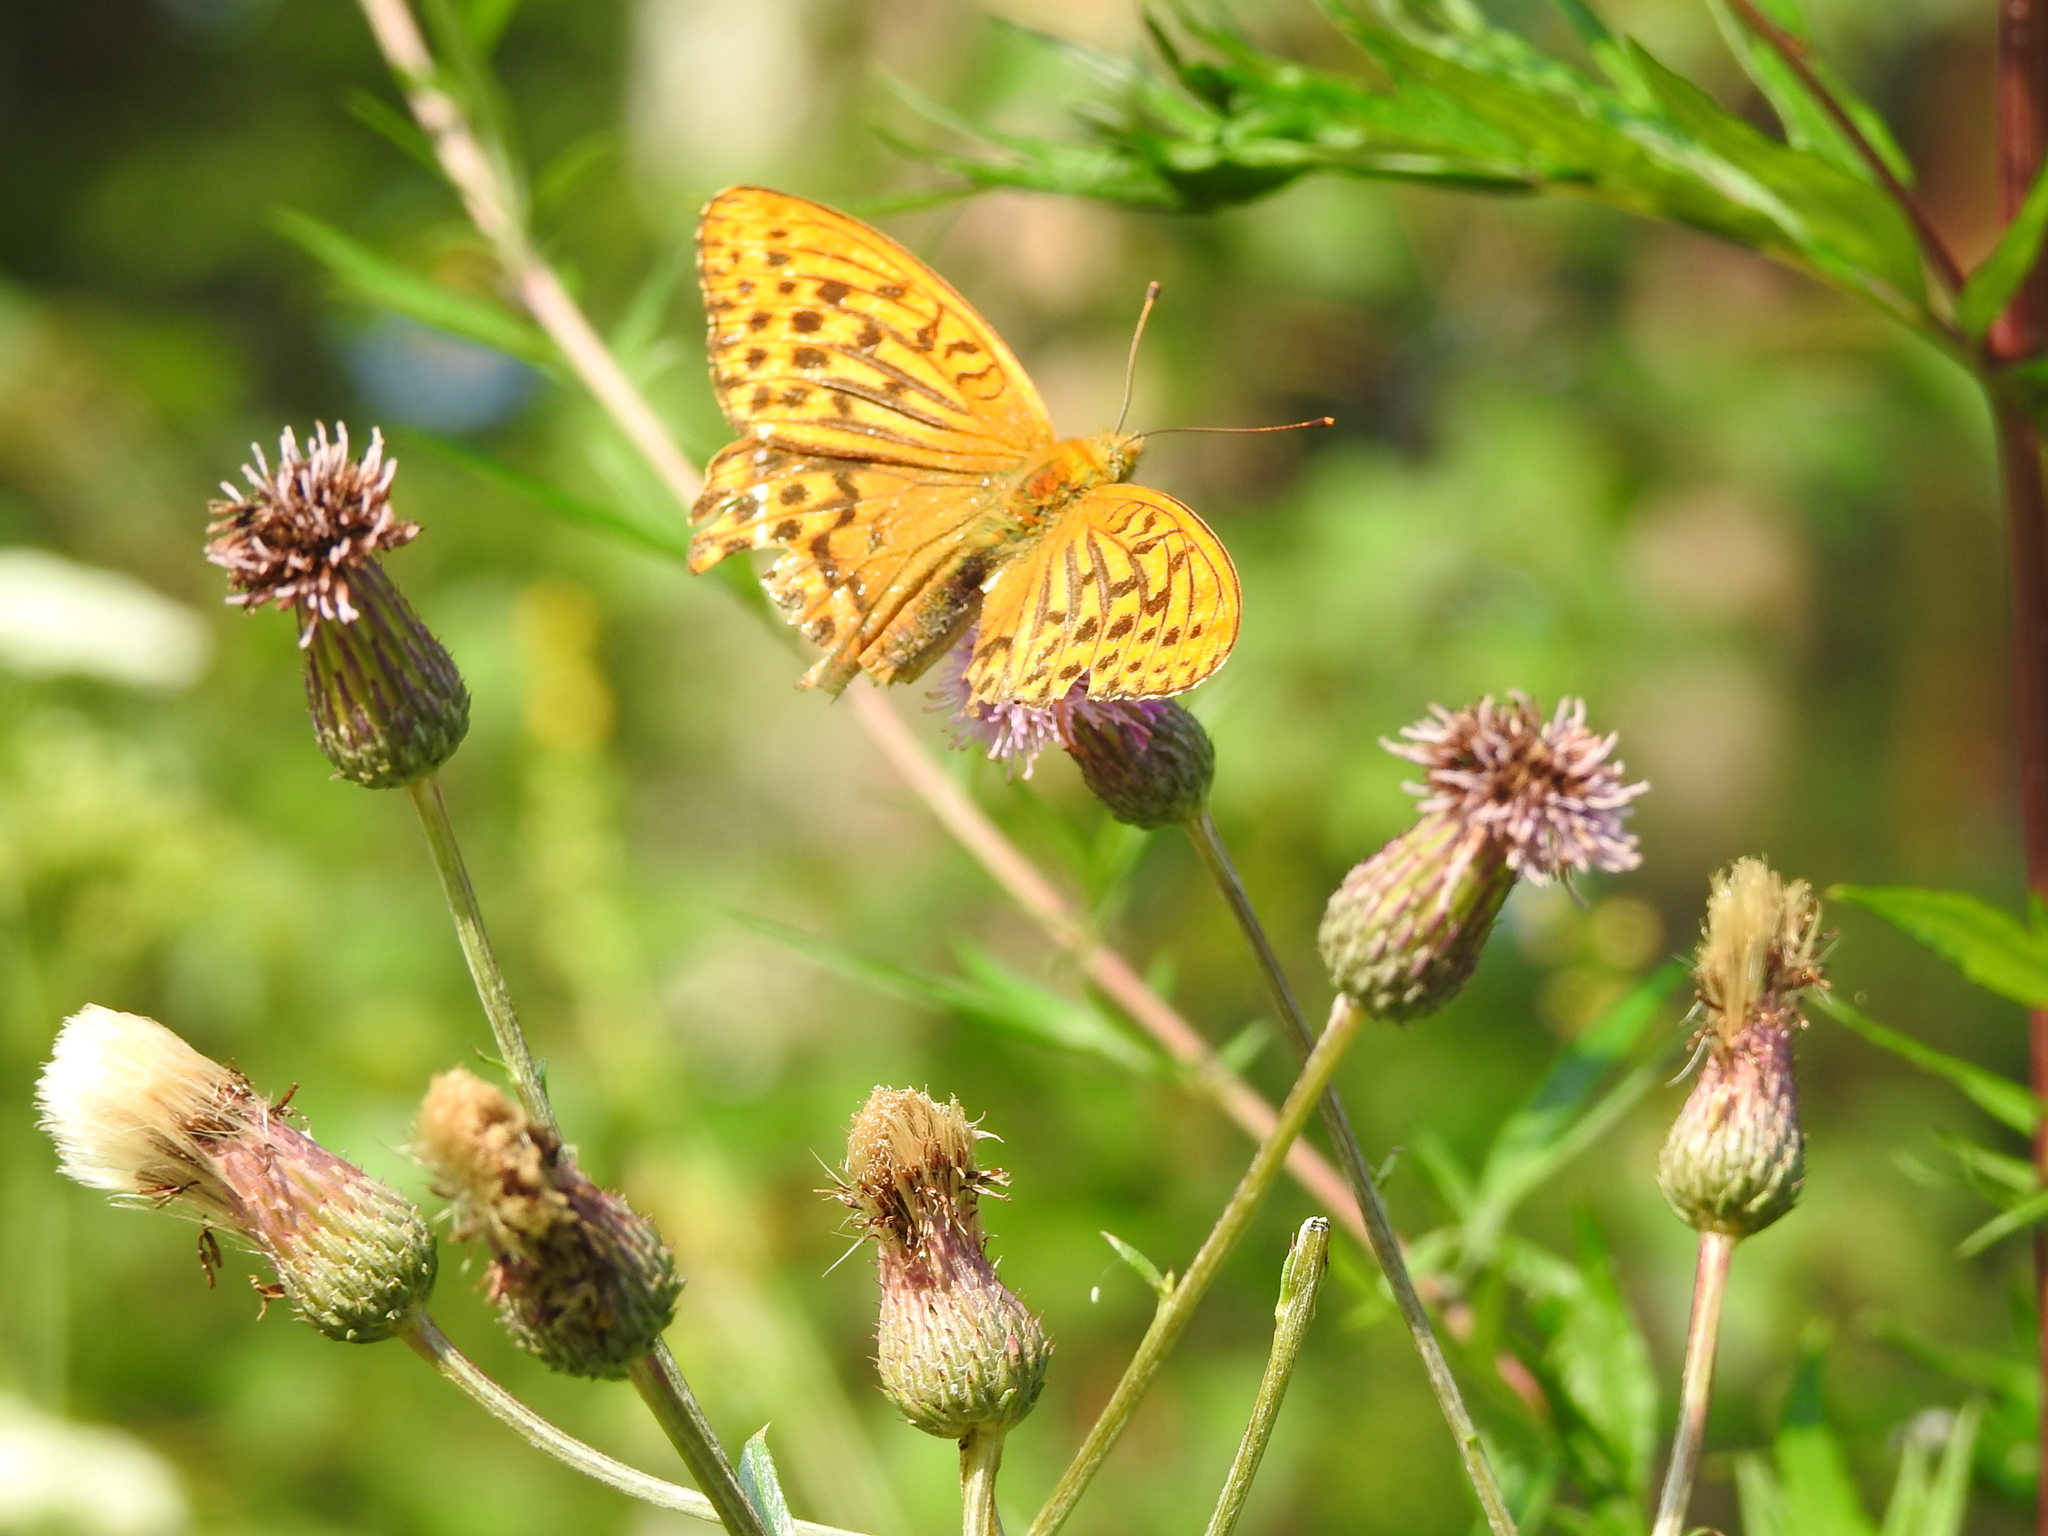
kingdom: Animalia
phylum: Arthropoda
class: Insecta
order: Lepidoptera
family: Nymphalidae
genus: Argynnis
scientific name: Argynnis paphia
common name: Silver-washed fritillary
